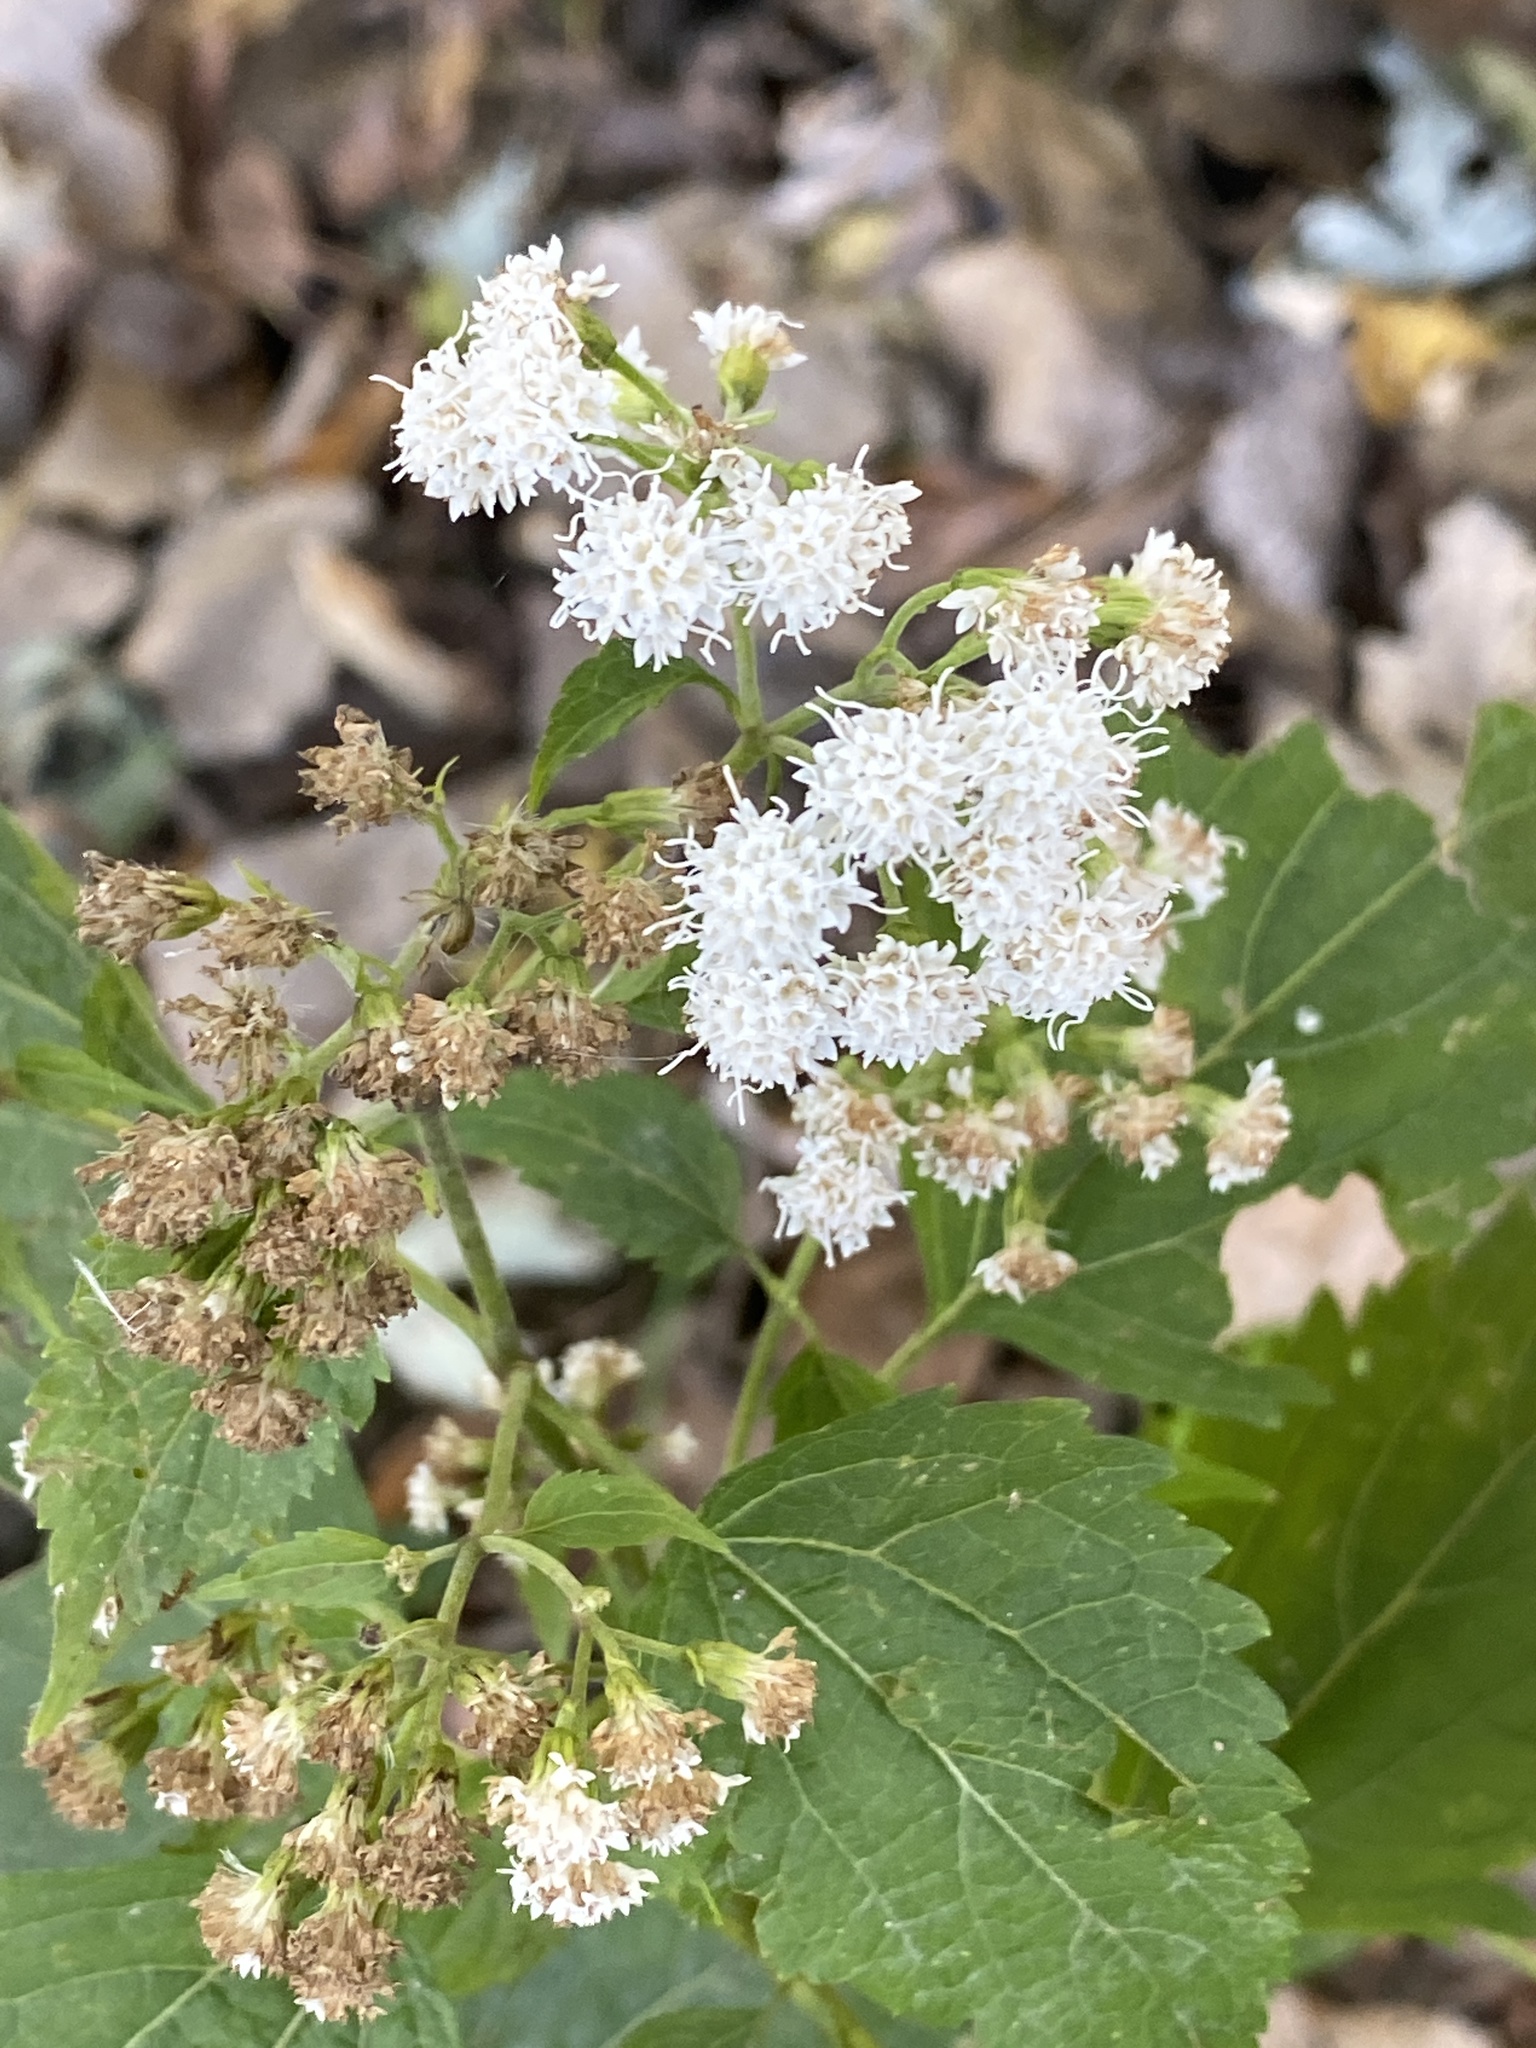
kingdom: Plantae
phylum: Tracheophyta
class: Magnoliopsida
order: Asterales
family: Asteraceae
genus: Ageratina
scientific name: Ageratina altissima
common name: White snakeroot
